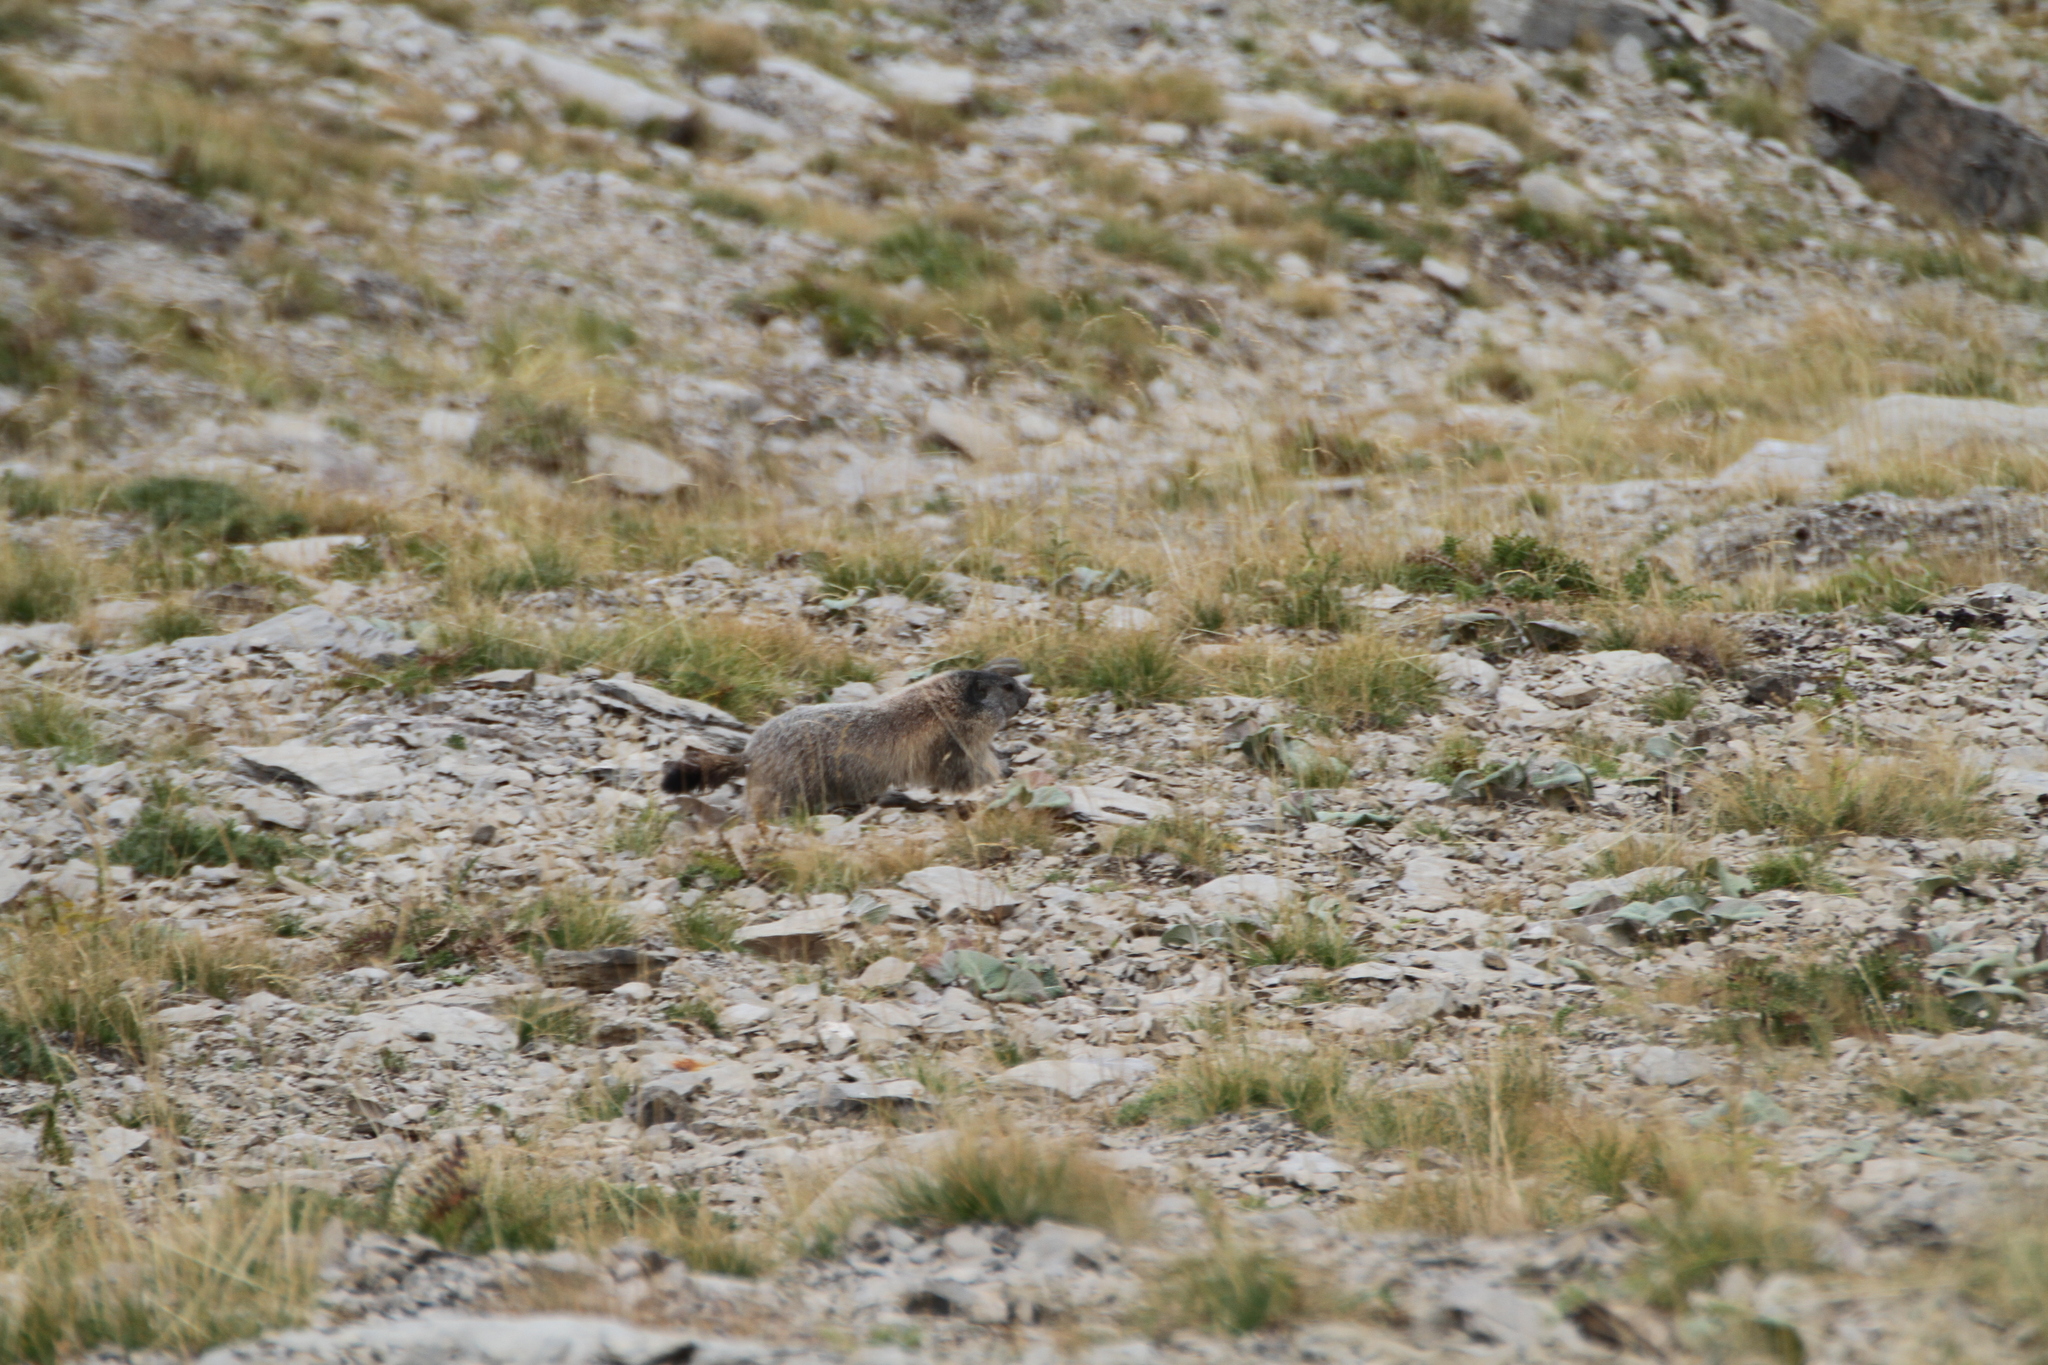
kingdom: Animalia
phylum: Chordata
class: Mammalia
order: Rodentia
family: Sciuridae
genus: Marmota
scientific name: Marmota marmota
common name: Alpine marmot
